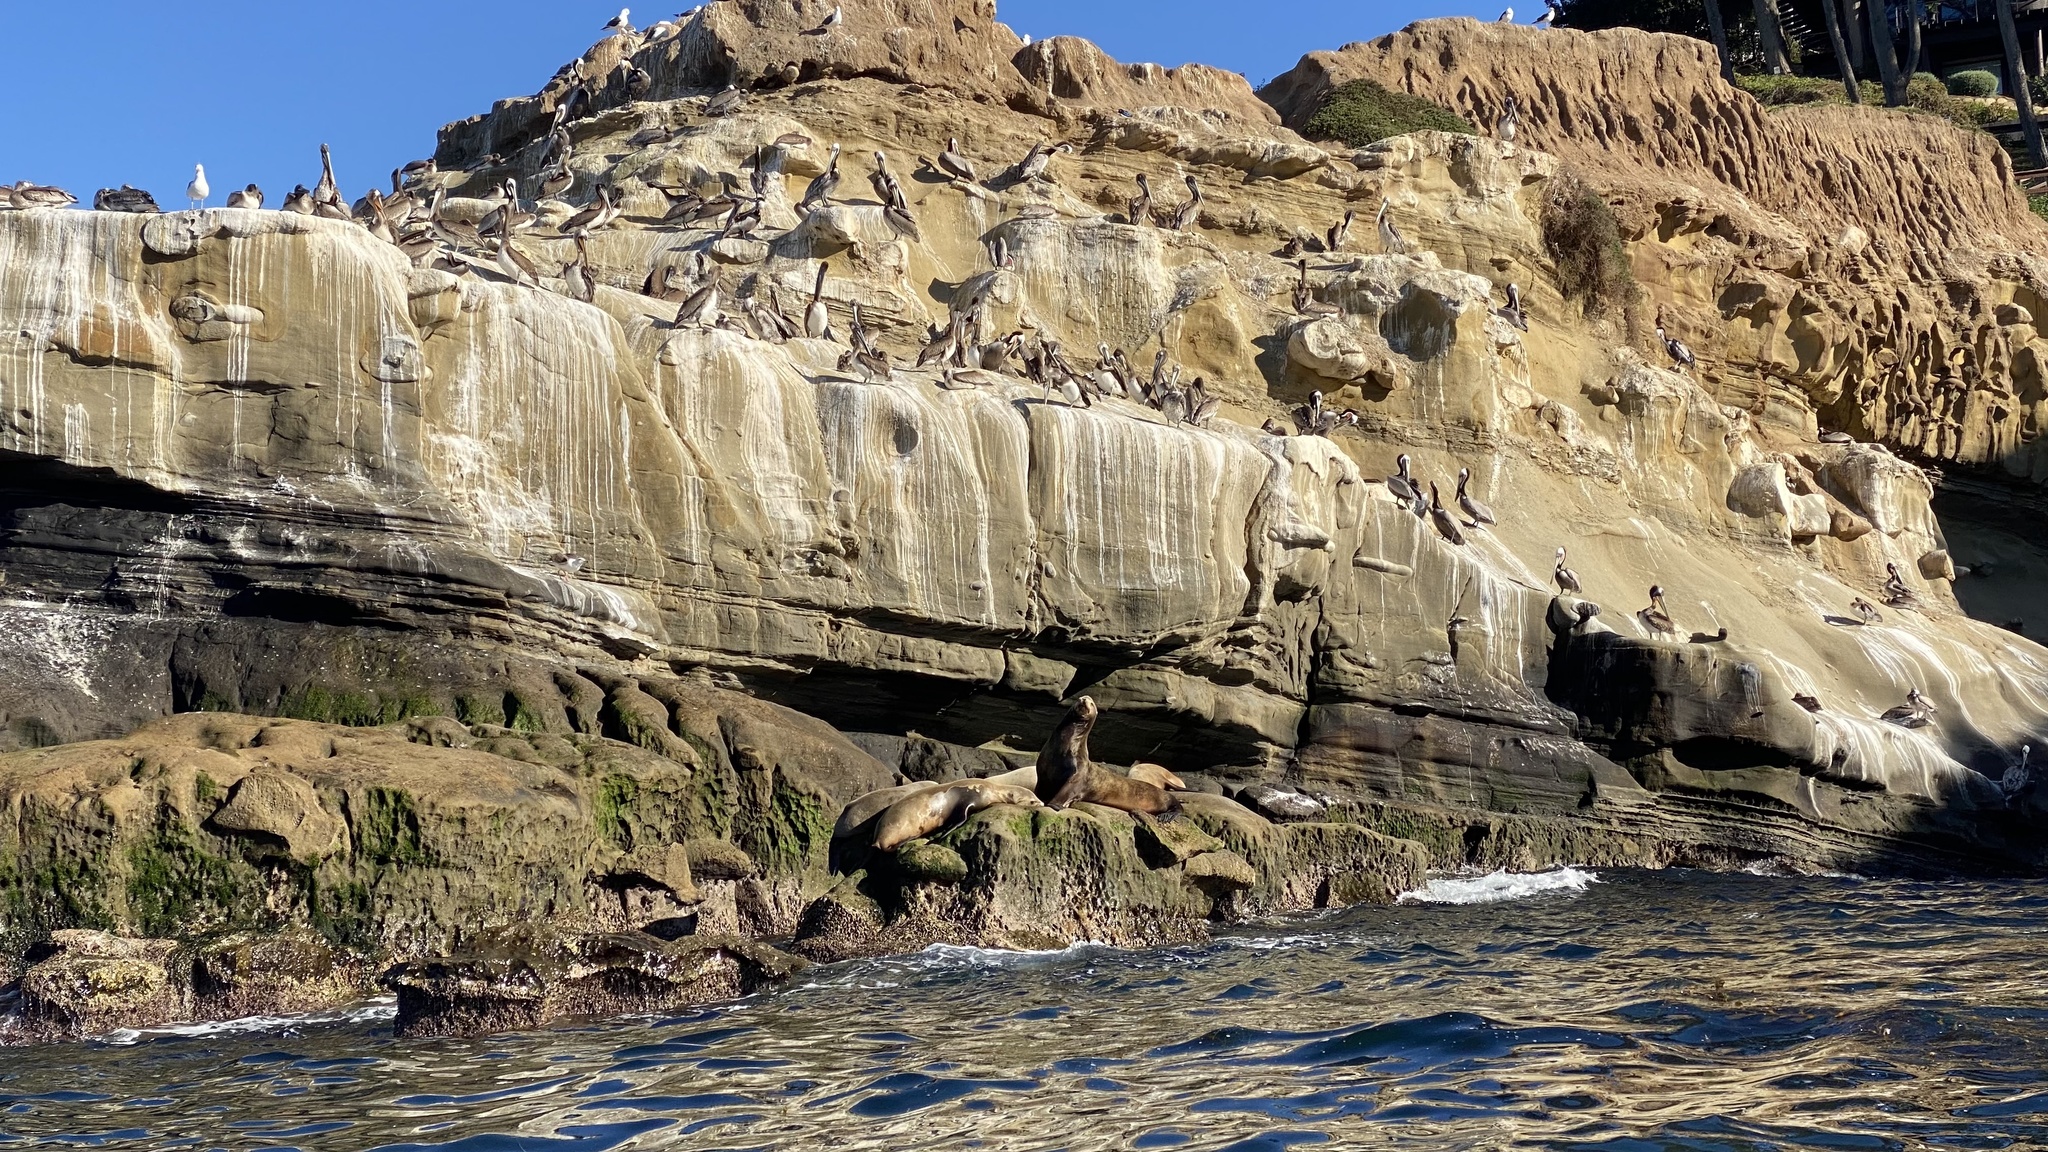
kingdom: Animalia
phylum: Chordata
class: Mammalia
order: Carnivora
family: Otariidae
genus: Zalophus
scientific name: Zalophus californianus
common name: California sea lion
